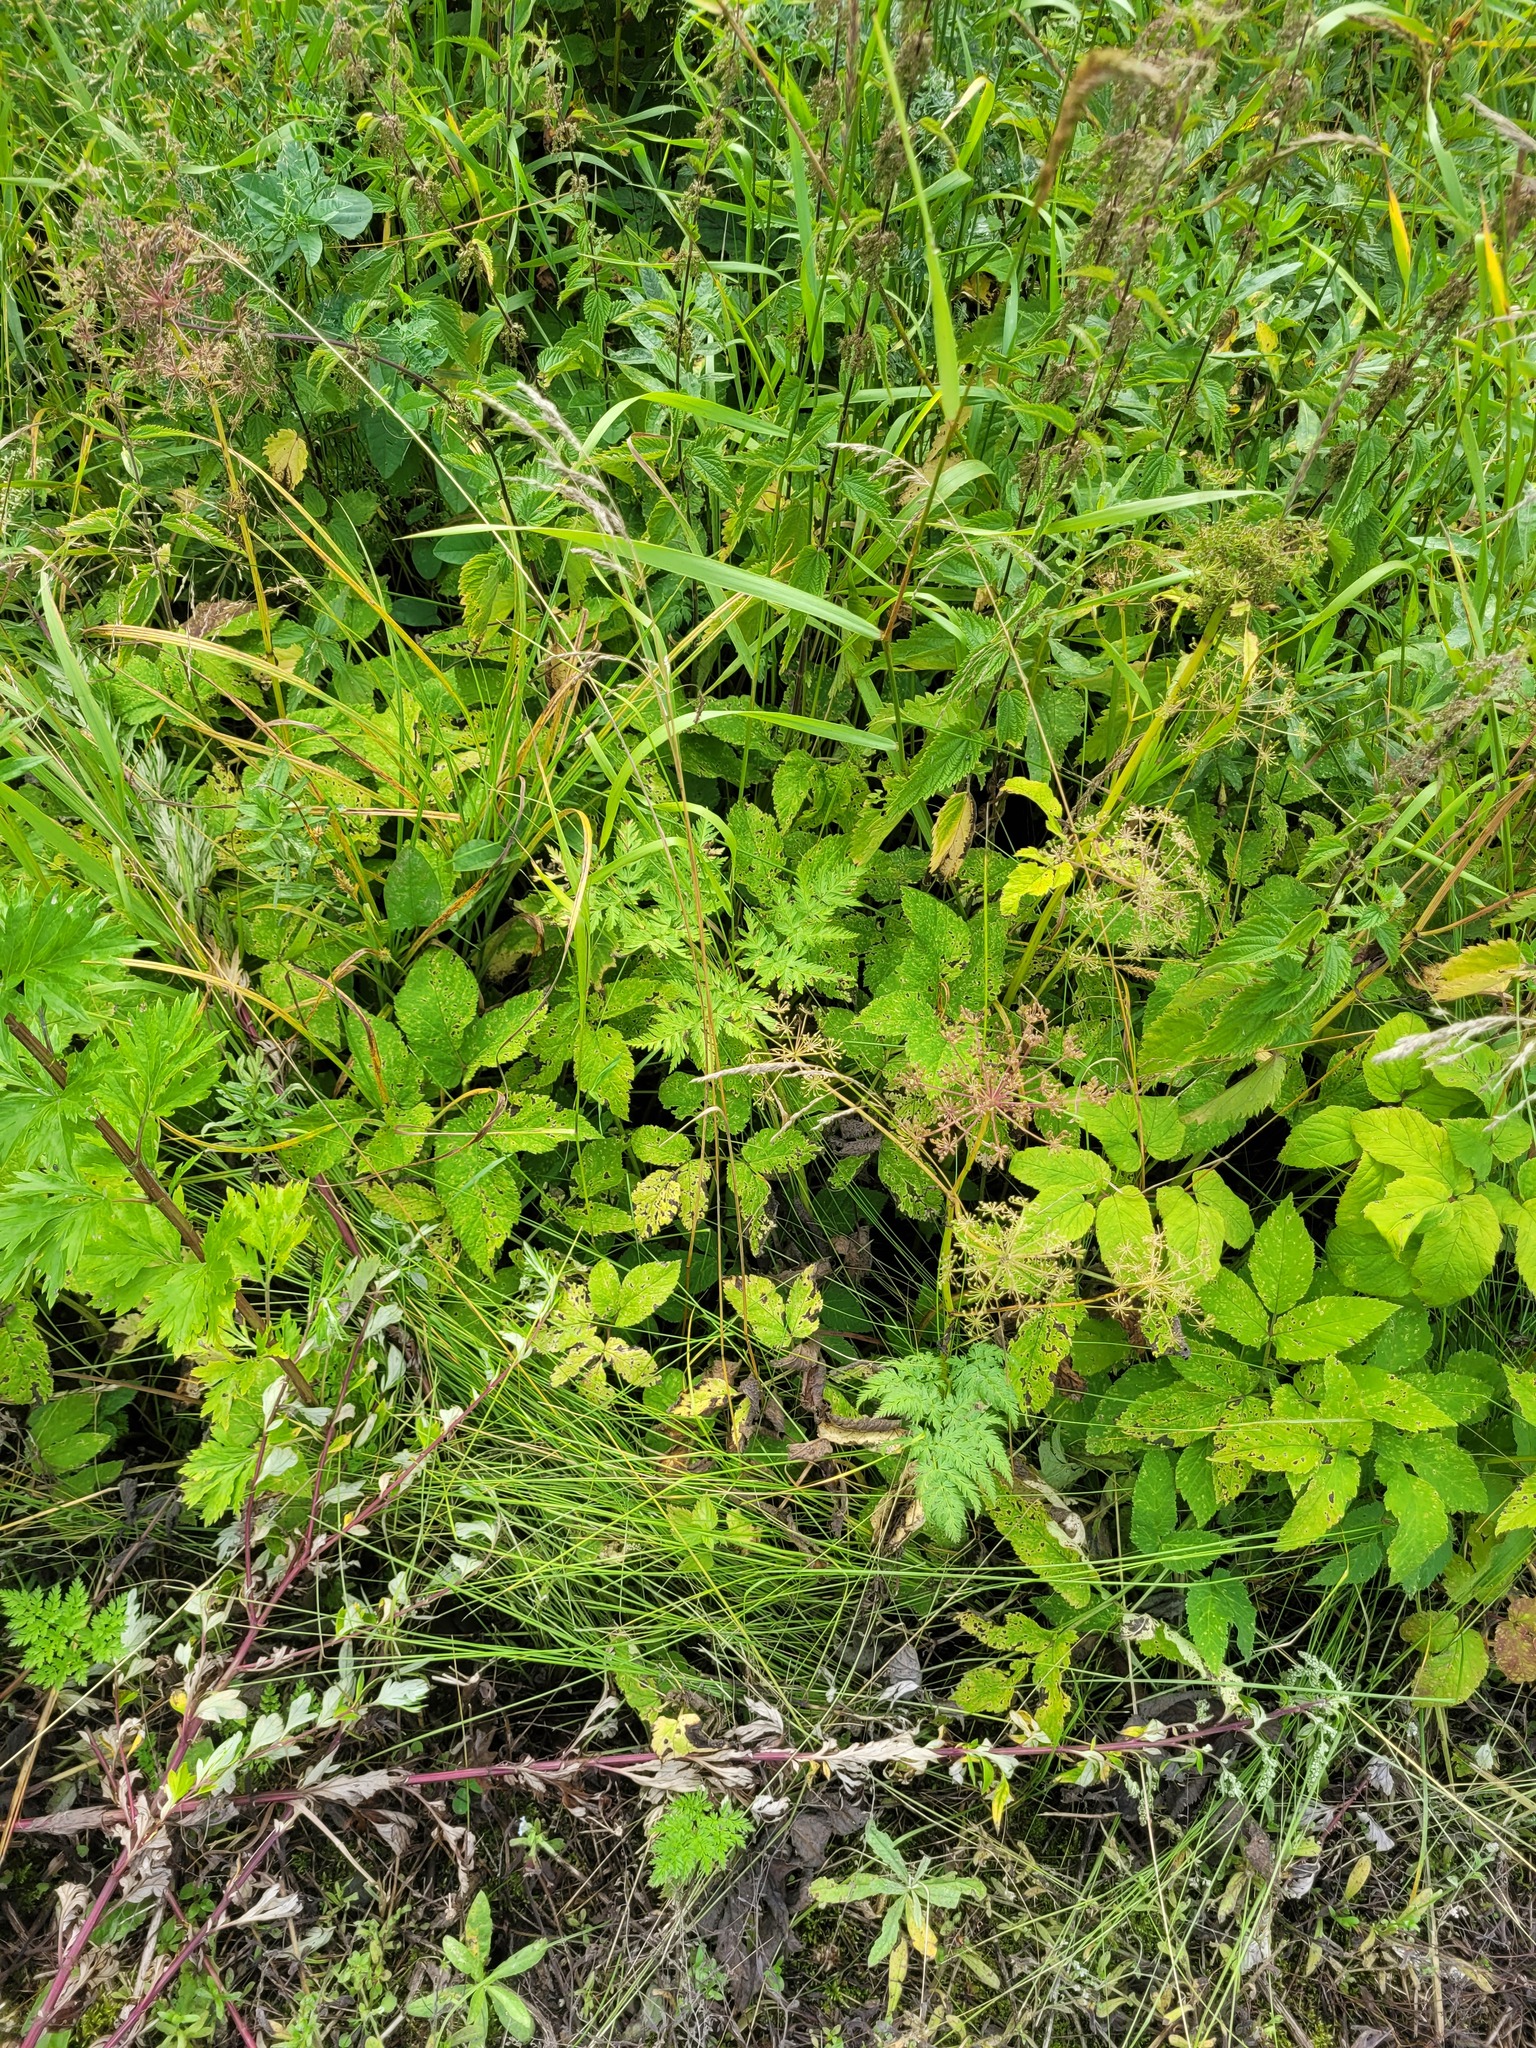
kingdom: Plantae
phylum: Tracheophyta
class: Liliopsida
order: Poales
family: Poaceae
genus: Poa
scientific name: Poa angustifolia
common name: Narrow-leaved meadow-grass
